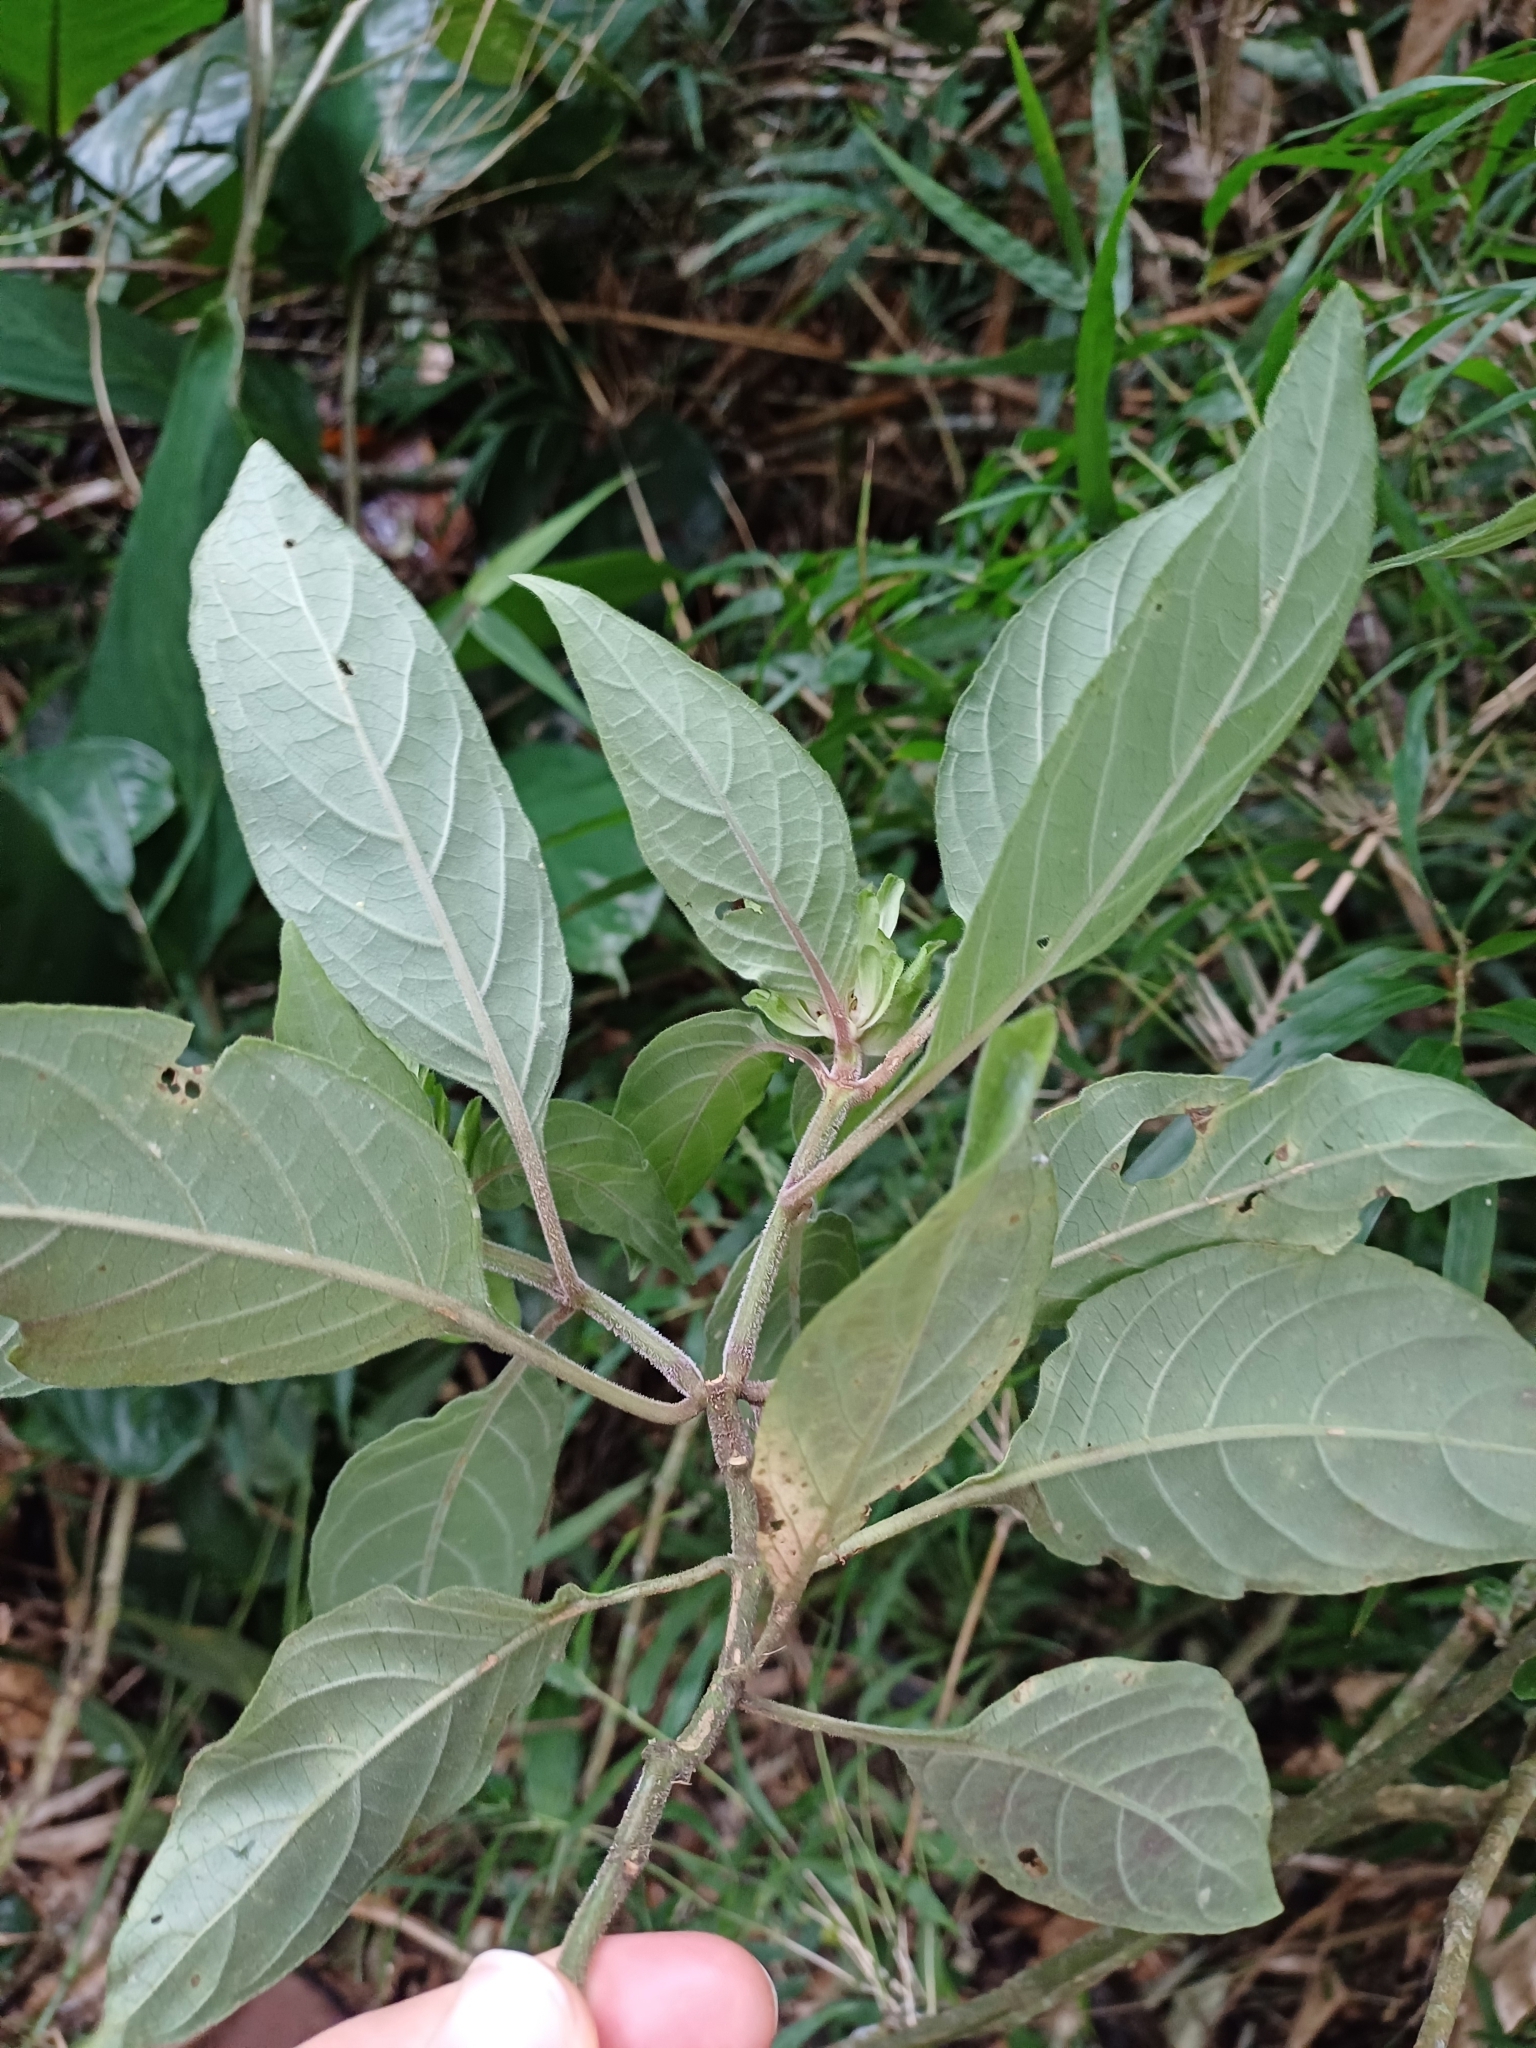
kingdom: Plantae
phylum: Tracheophyta
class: Magnoliopsida
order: Lamiales
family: Acanthaceae
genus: Justicia
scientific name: Justicia carnea
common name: Brazilian-plume
